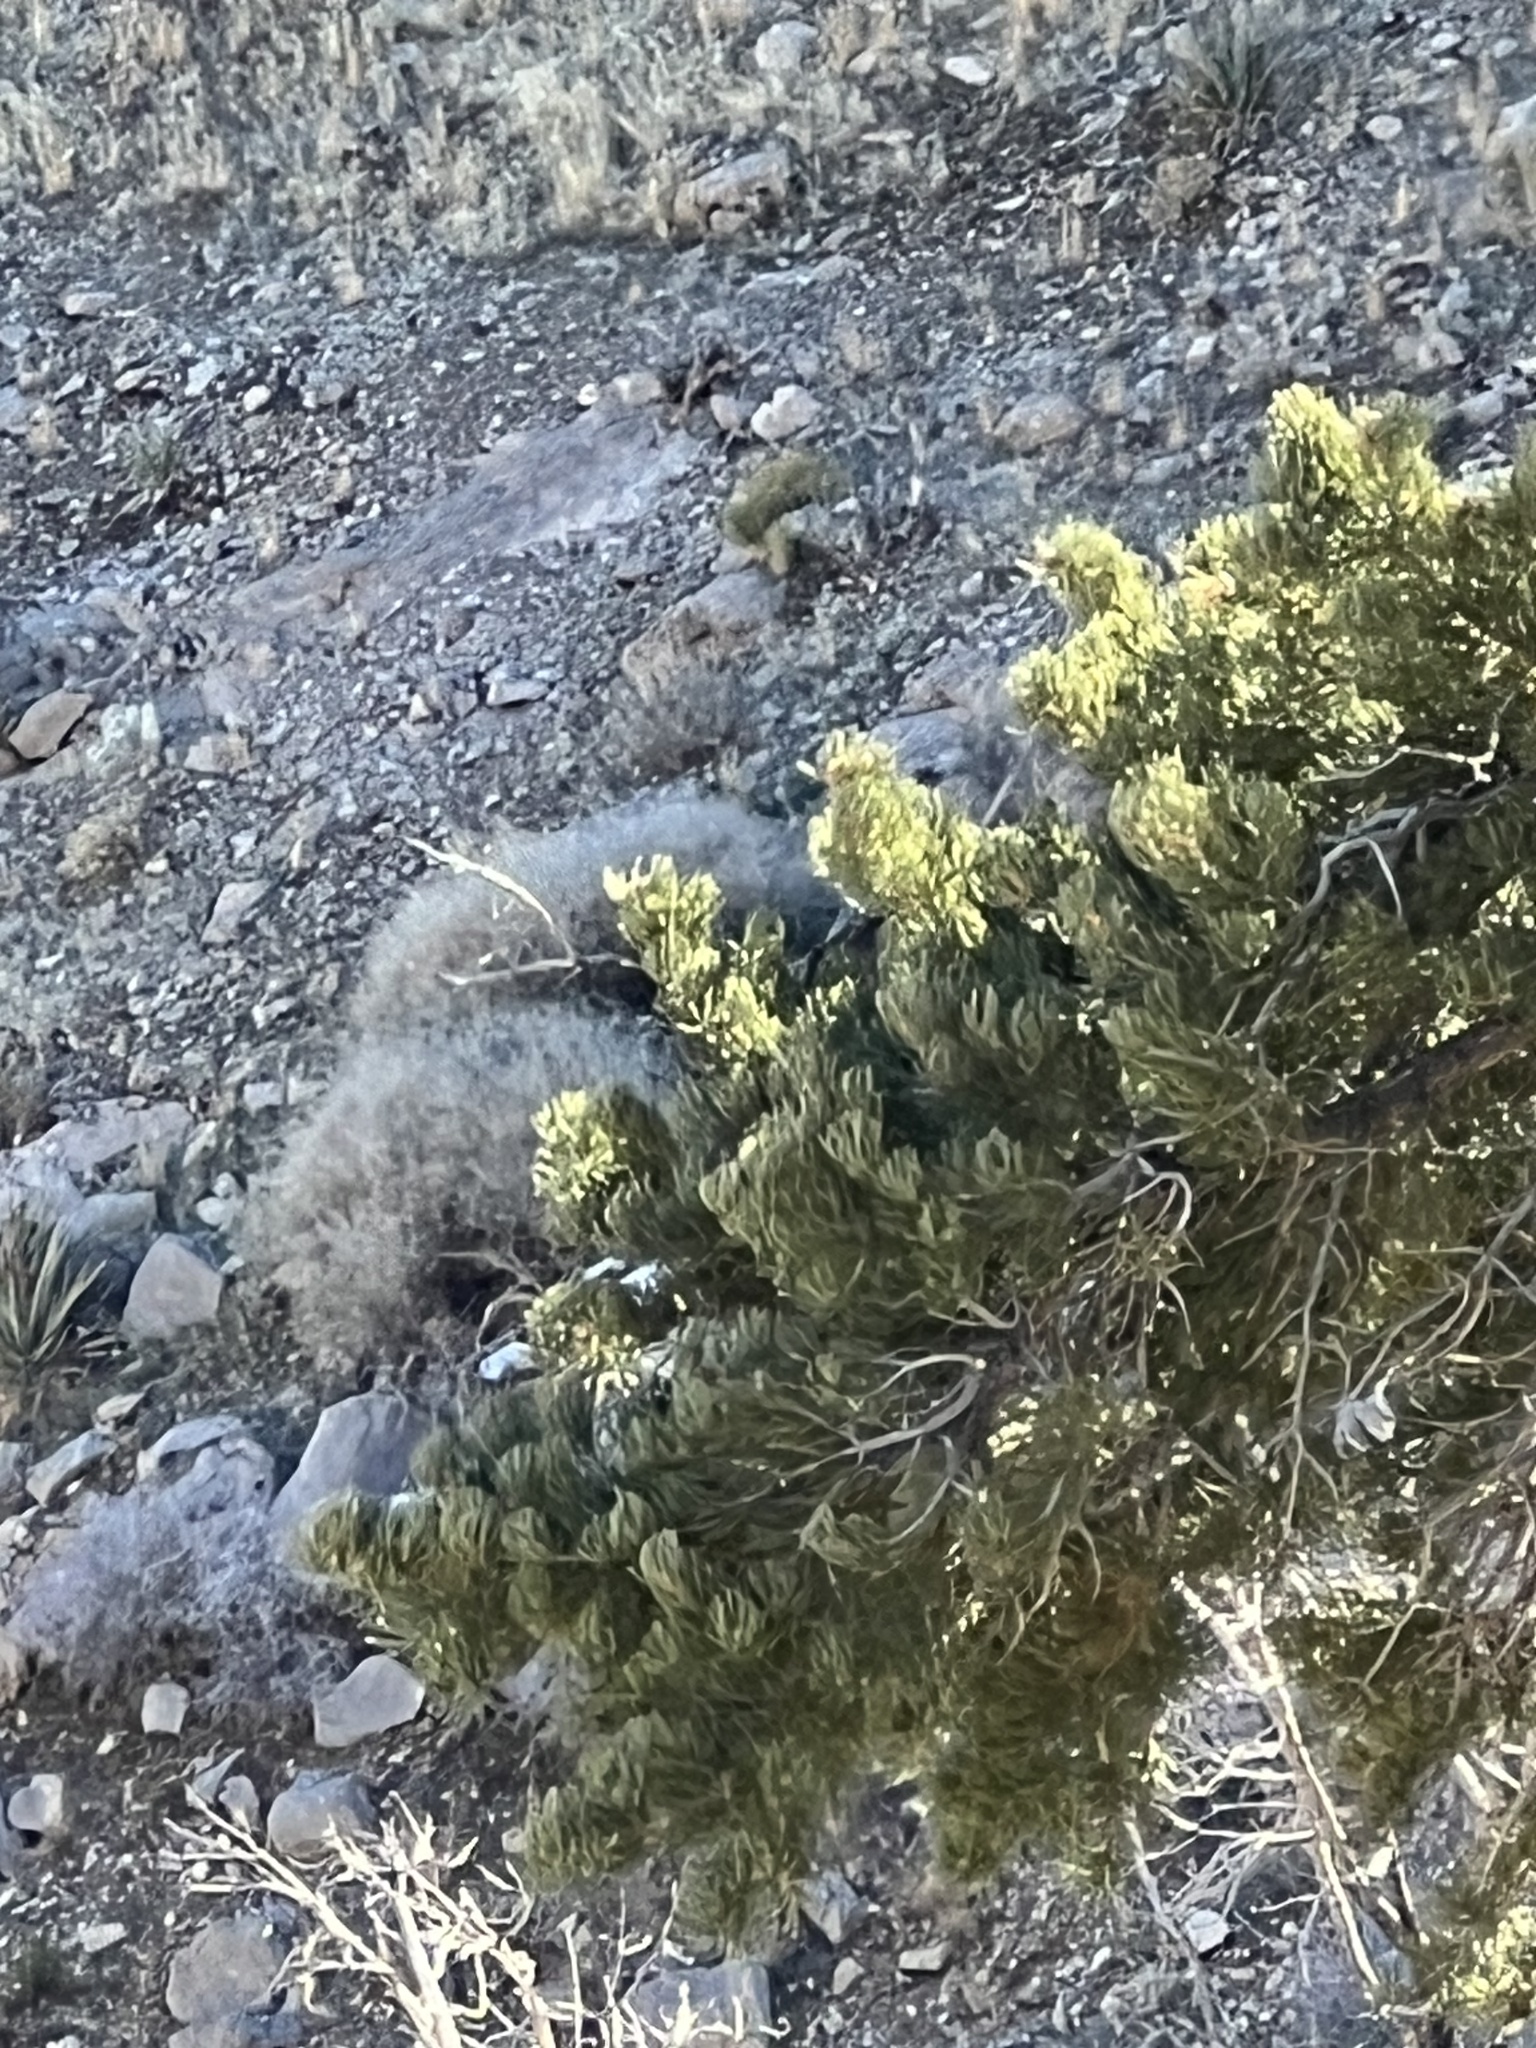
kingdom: Plantae
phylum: Tracheophyta
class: Pinopsida
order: Pinales
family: Pinaceae
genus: Pinus
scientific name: Pinus monophylla
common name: One-leaved nut pine
